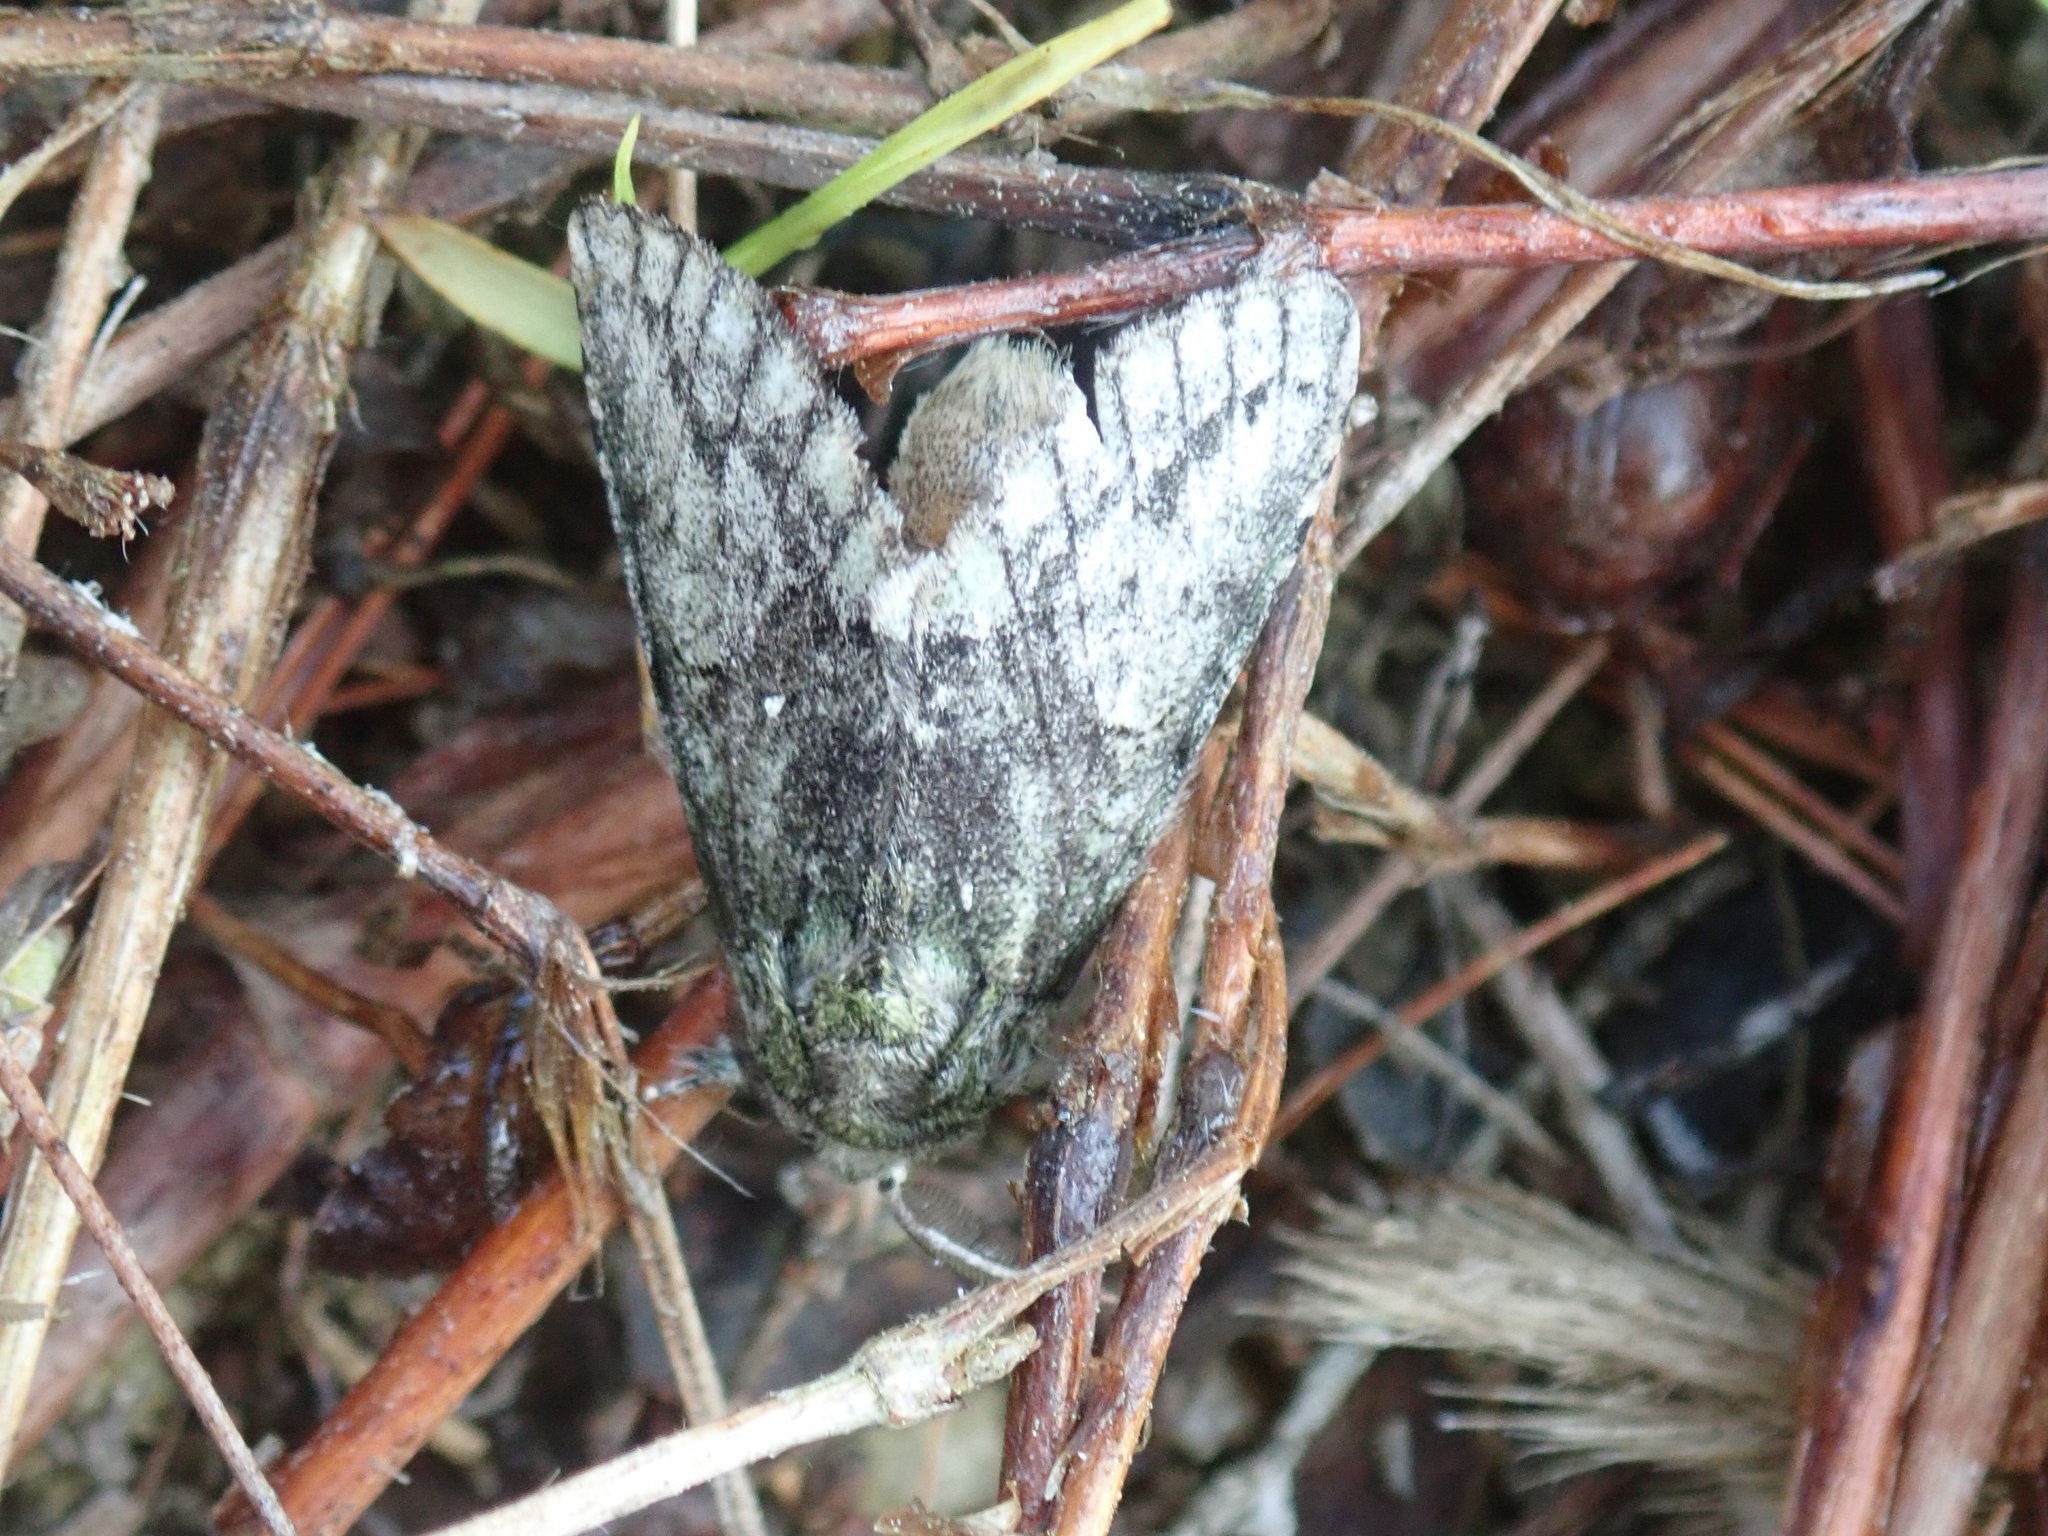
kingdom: Animalia
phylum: Arthropoda
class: Insecta
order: Lepidoptera
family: Notodontidae
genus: Heterocampa
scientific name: Heterocampa
